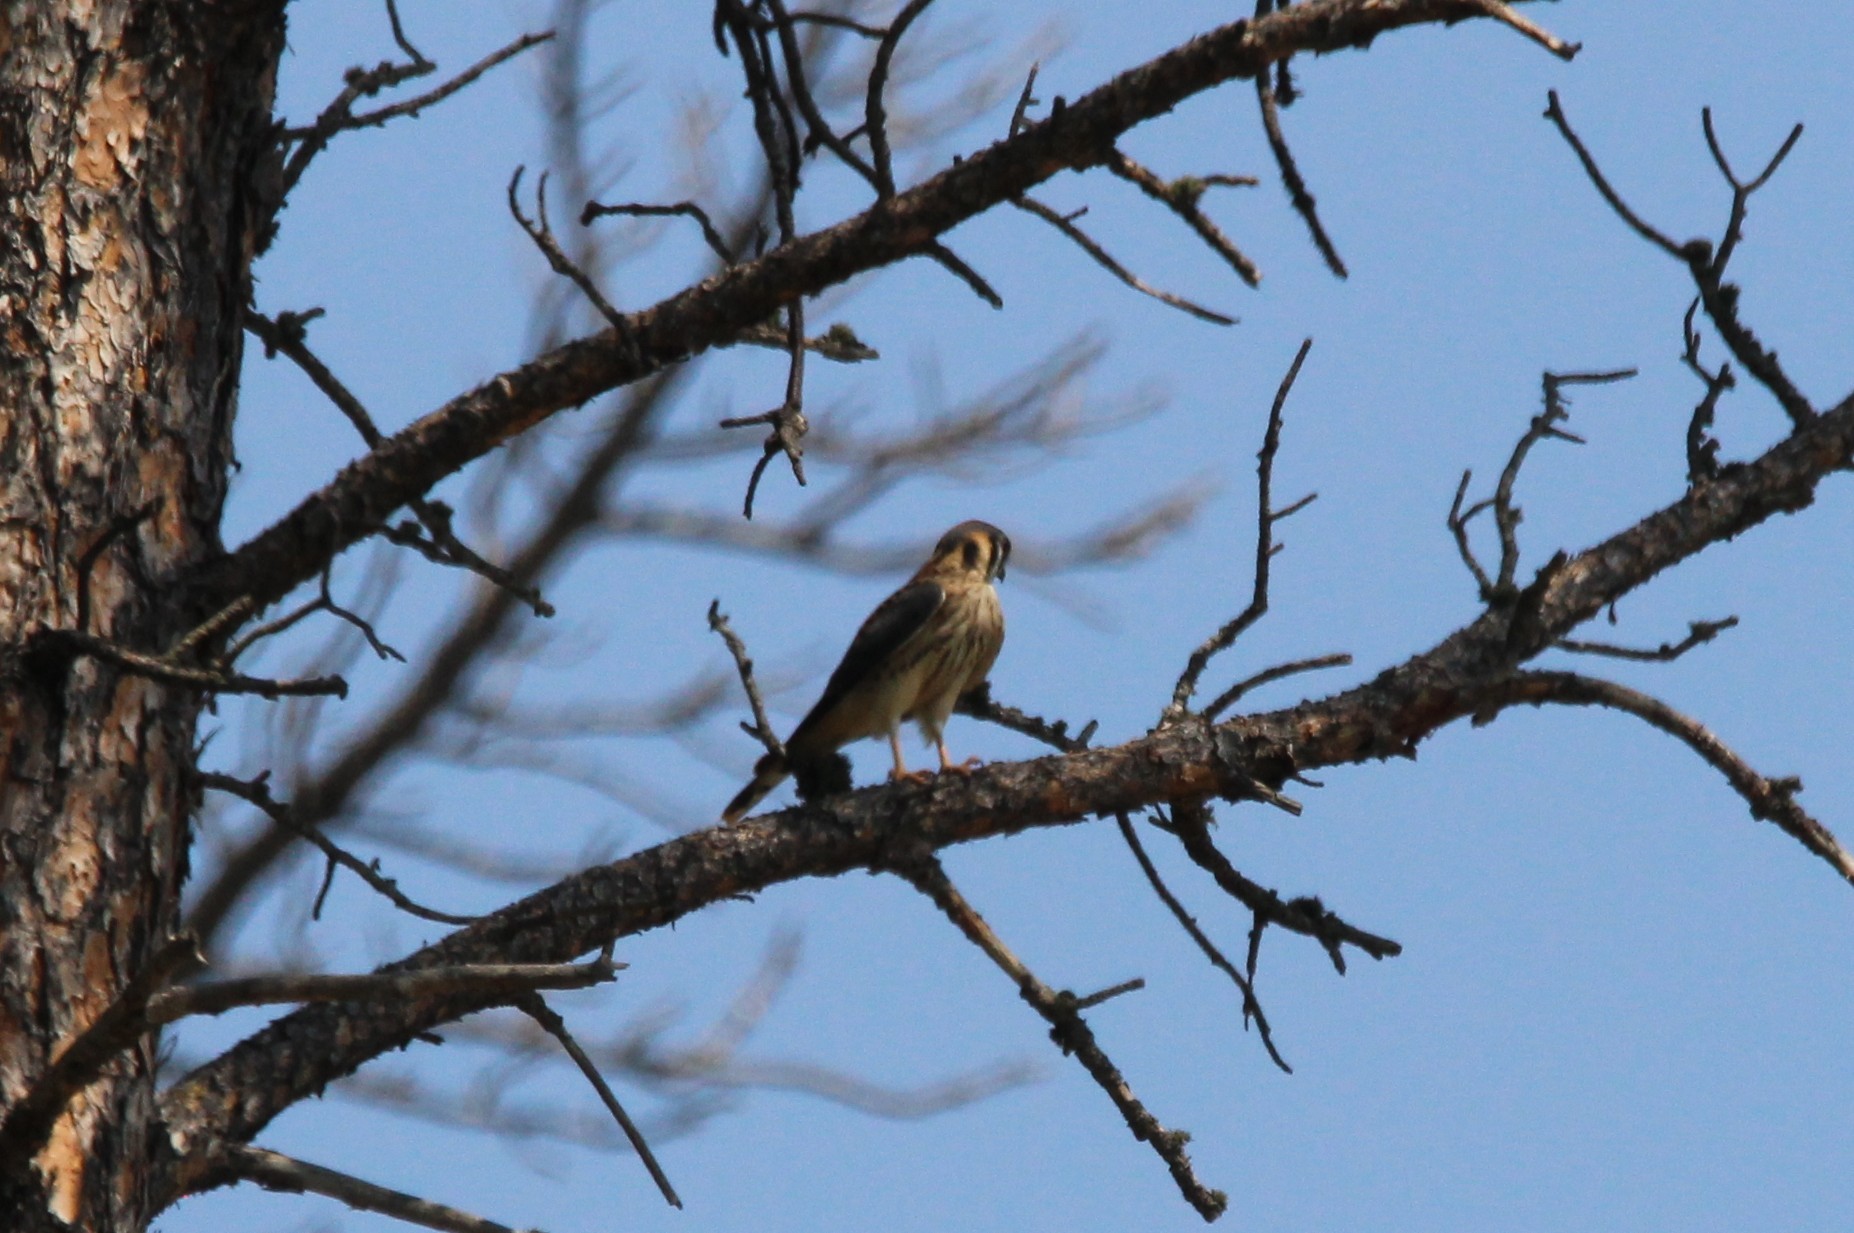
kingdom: Animalia
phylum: Chordata
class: Aves
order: Falconiformes
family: Falconidae
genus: Falco
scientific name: Falco sparverius
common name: American kestrel
